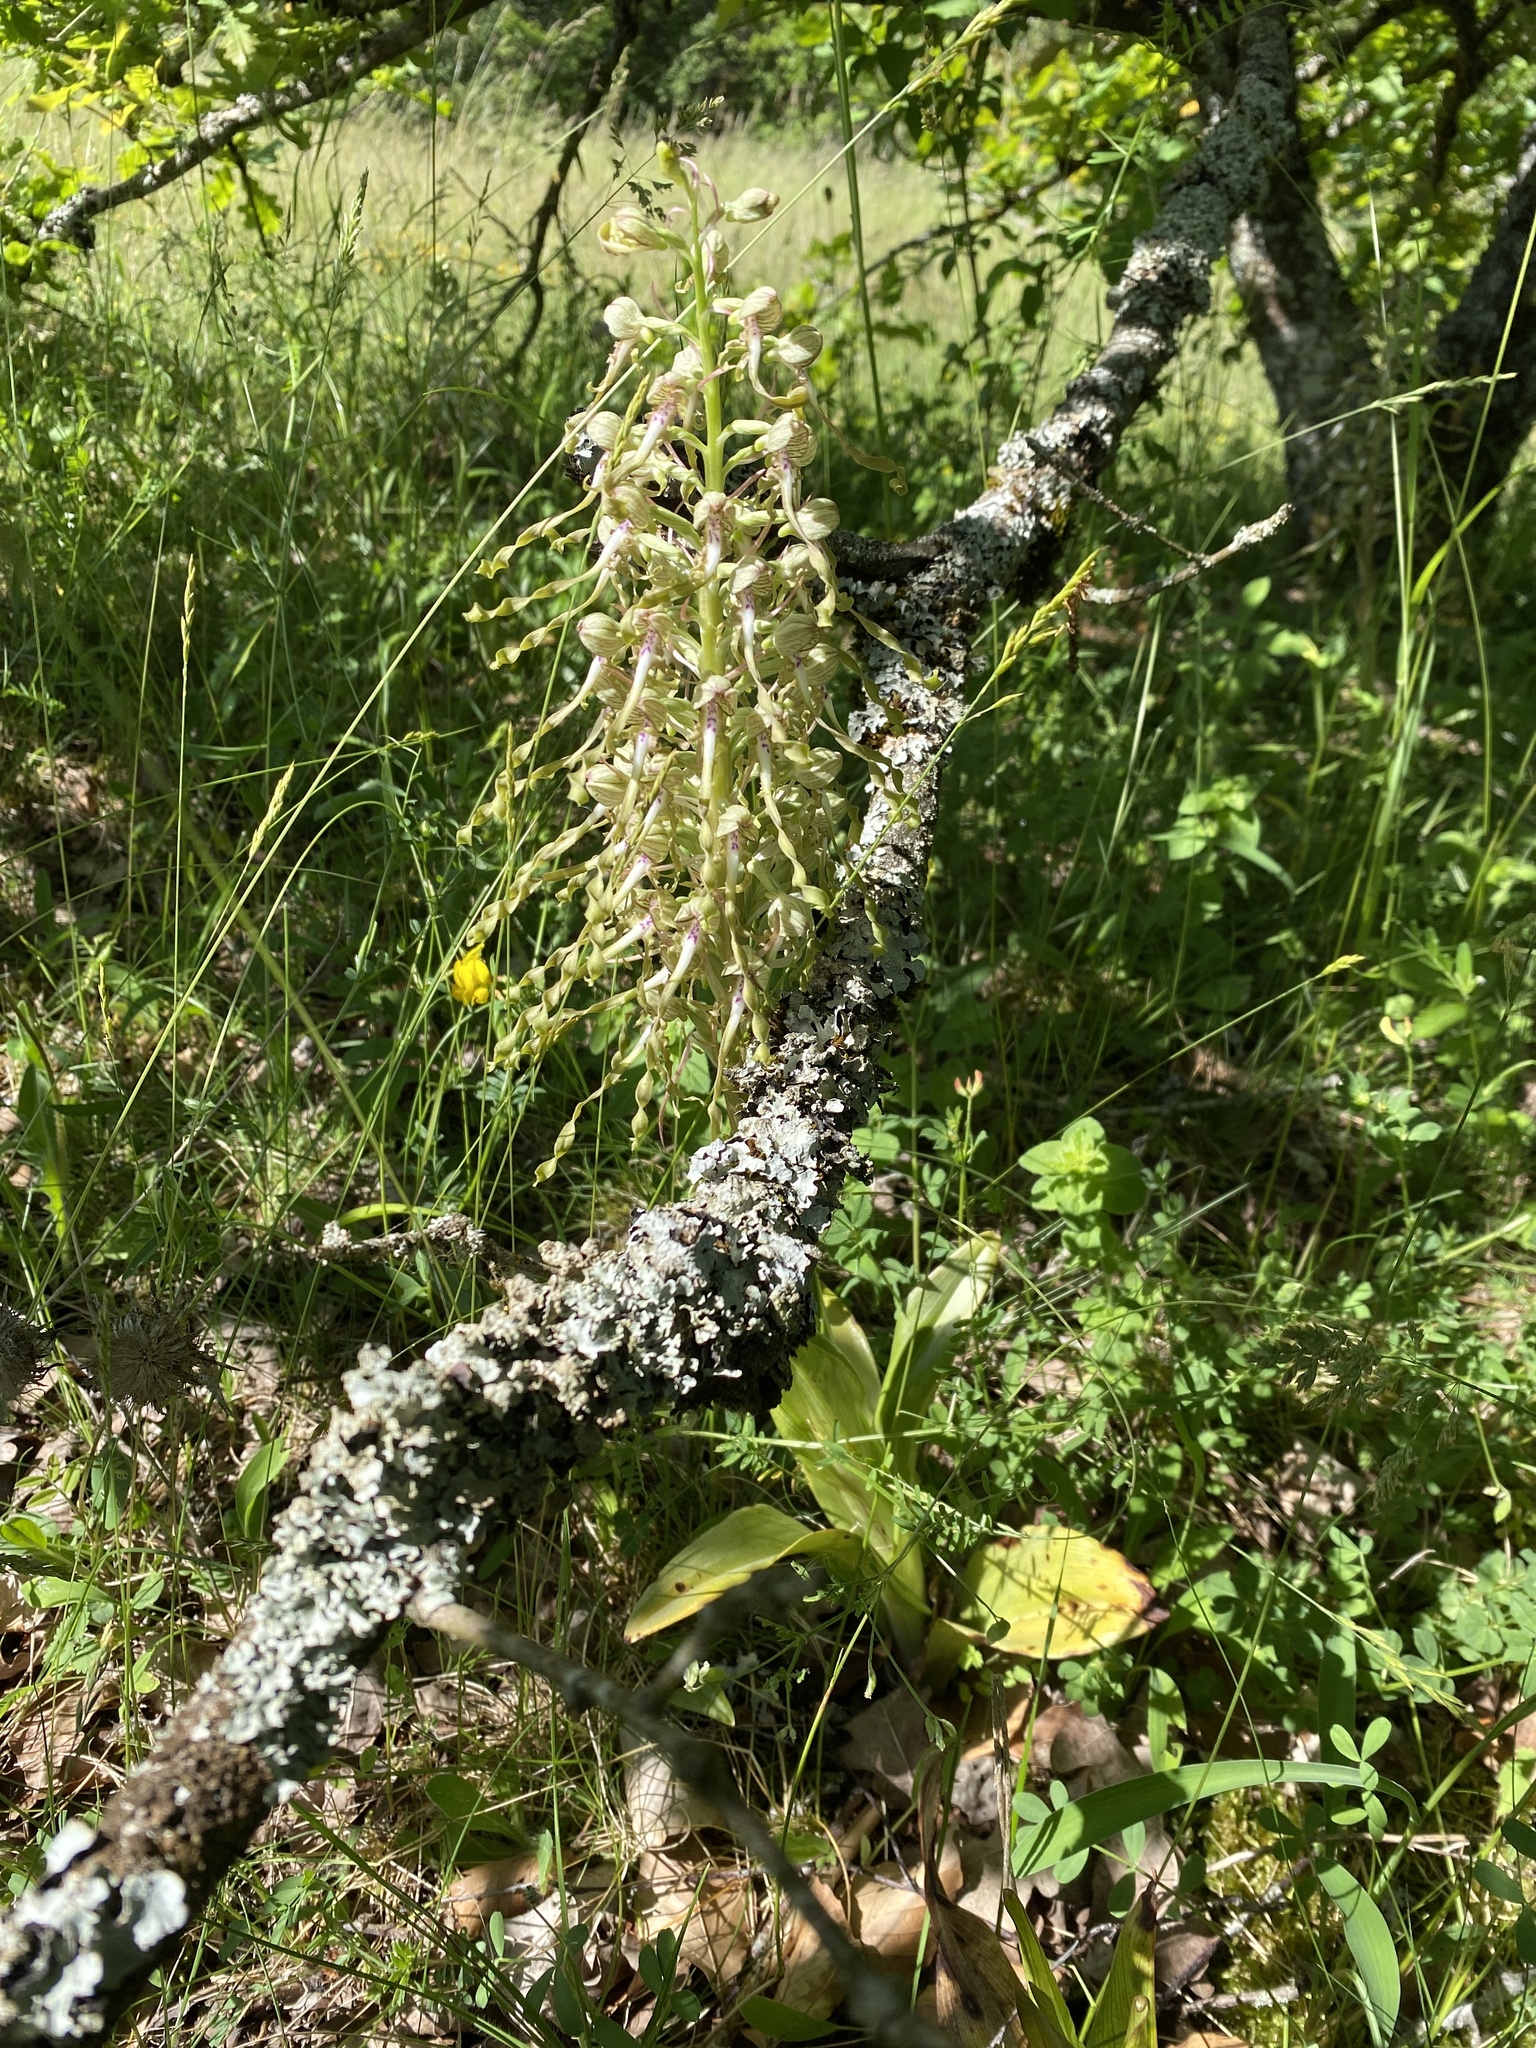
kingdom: Plantae
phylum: Tracheophyta
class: Liliopsida
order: Asparagales
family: Orchidaceae
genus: Himantoglossum
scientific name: Himantoglossum hircinum
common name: Lizard orchid
